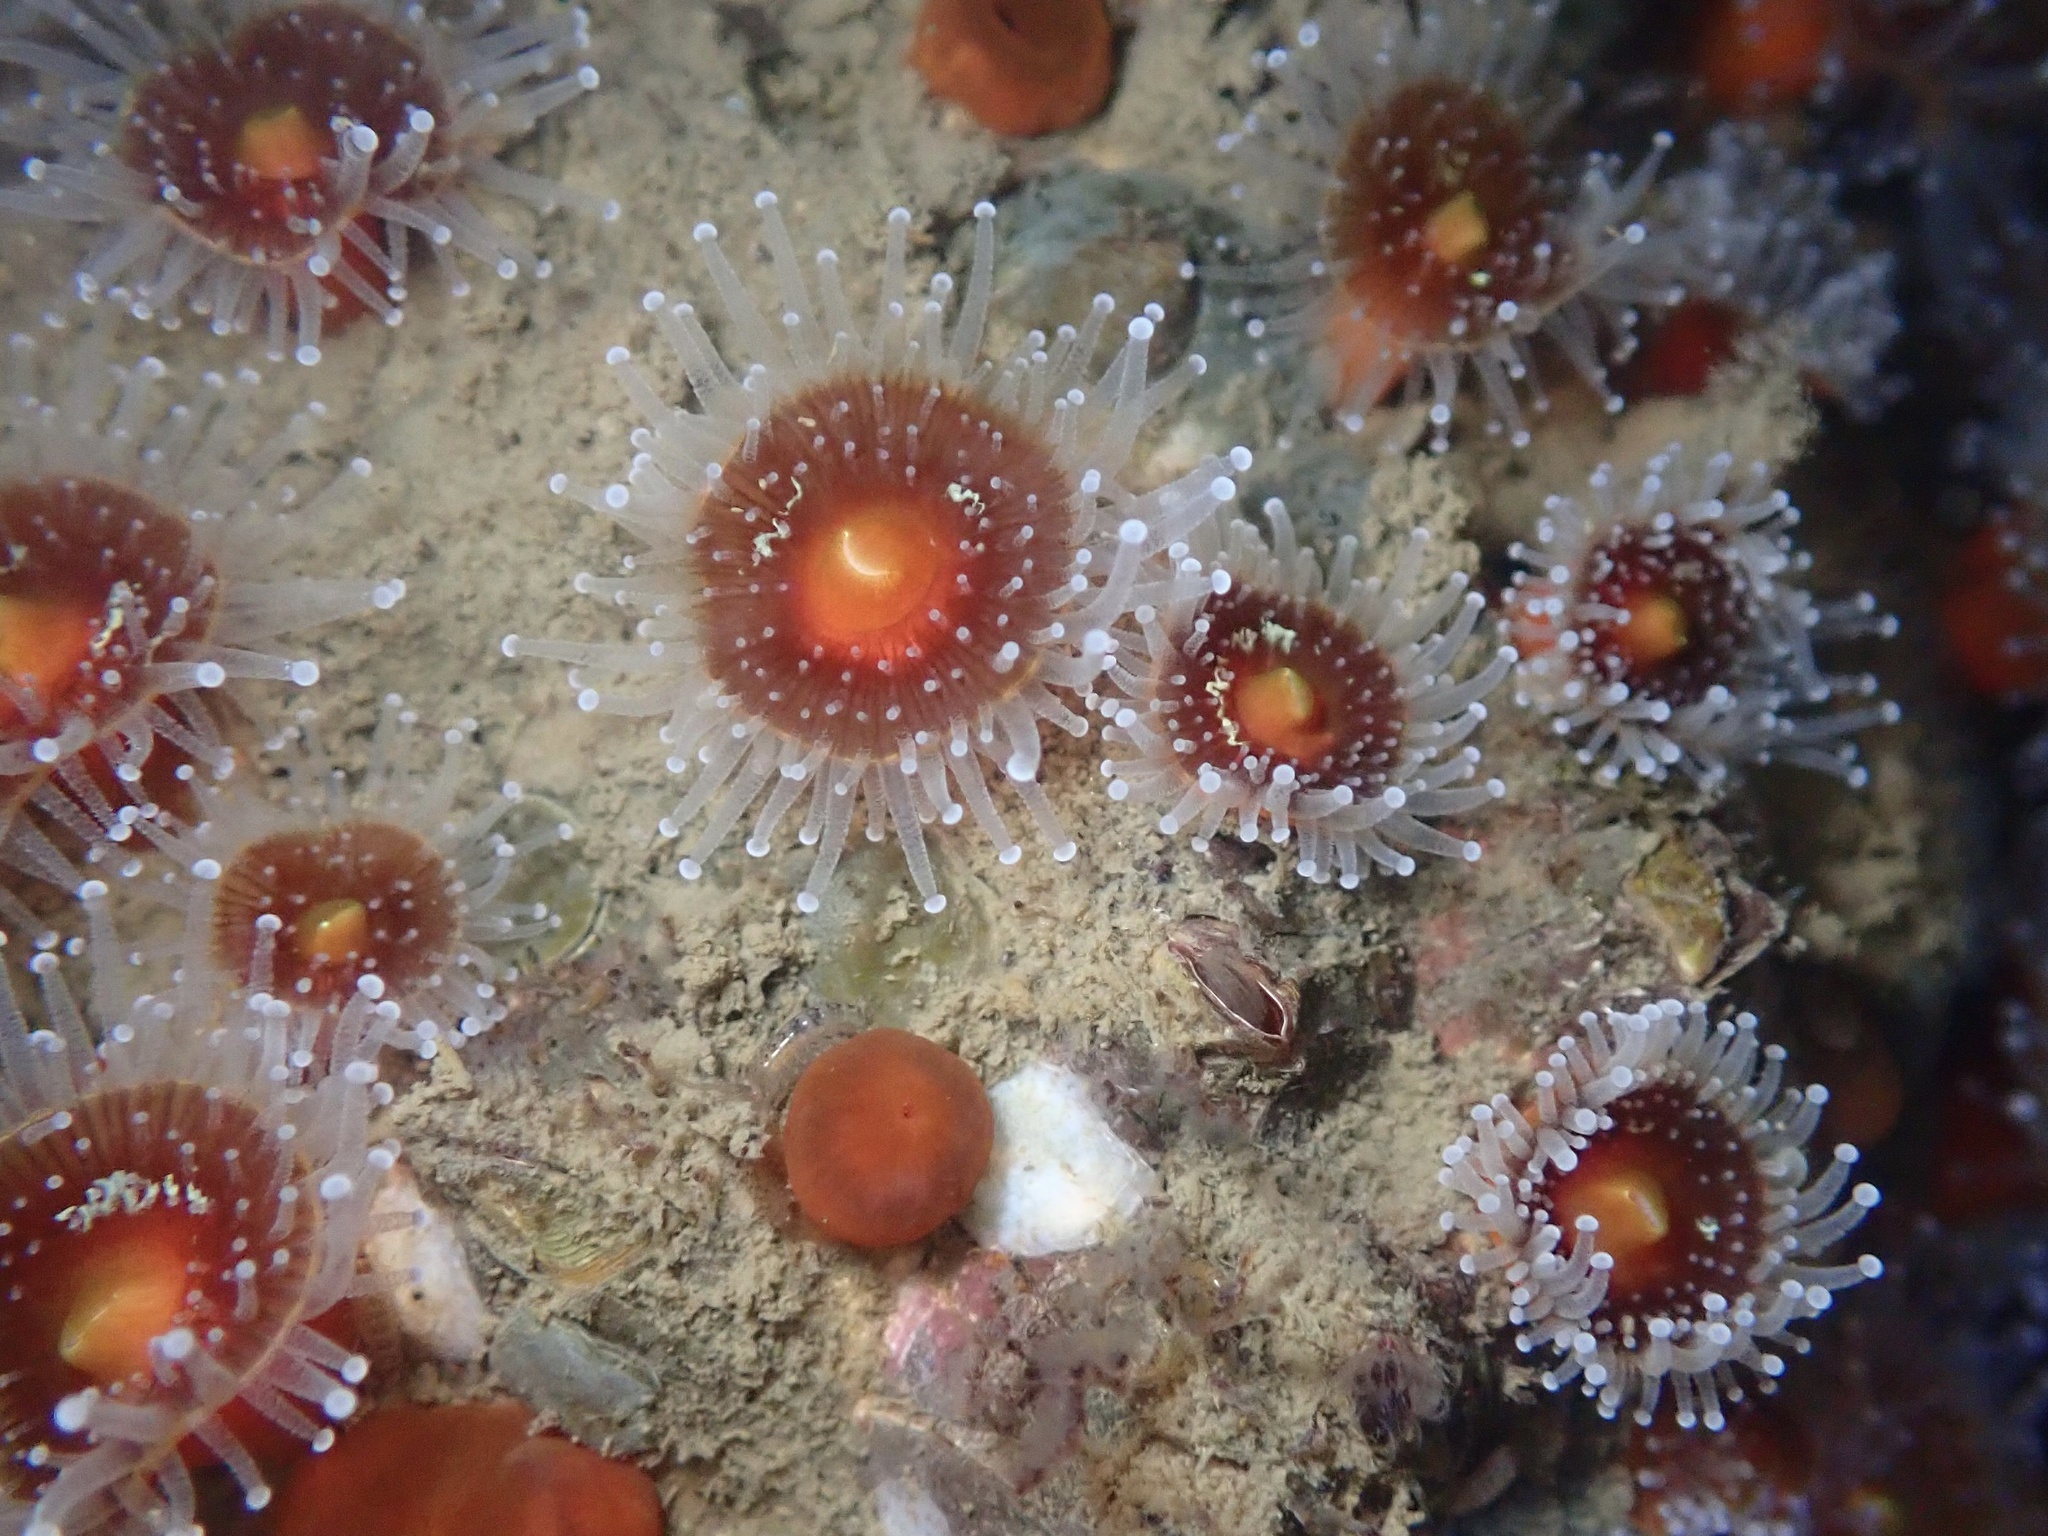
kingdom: Animalia
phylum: Cnidaria
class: Anthozoa
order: Corallimorpharia
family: Corallimorphidae
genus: Corynactis
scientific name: Corynactis californica
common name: Strawberry corallimorpharian
